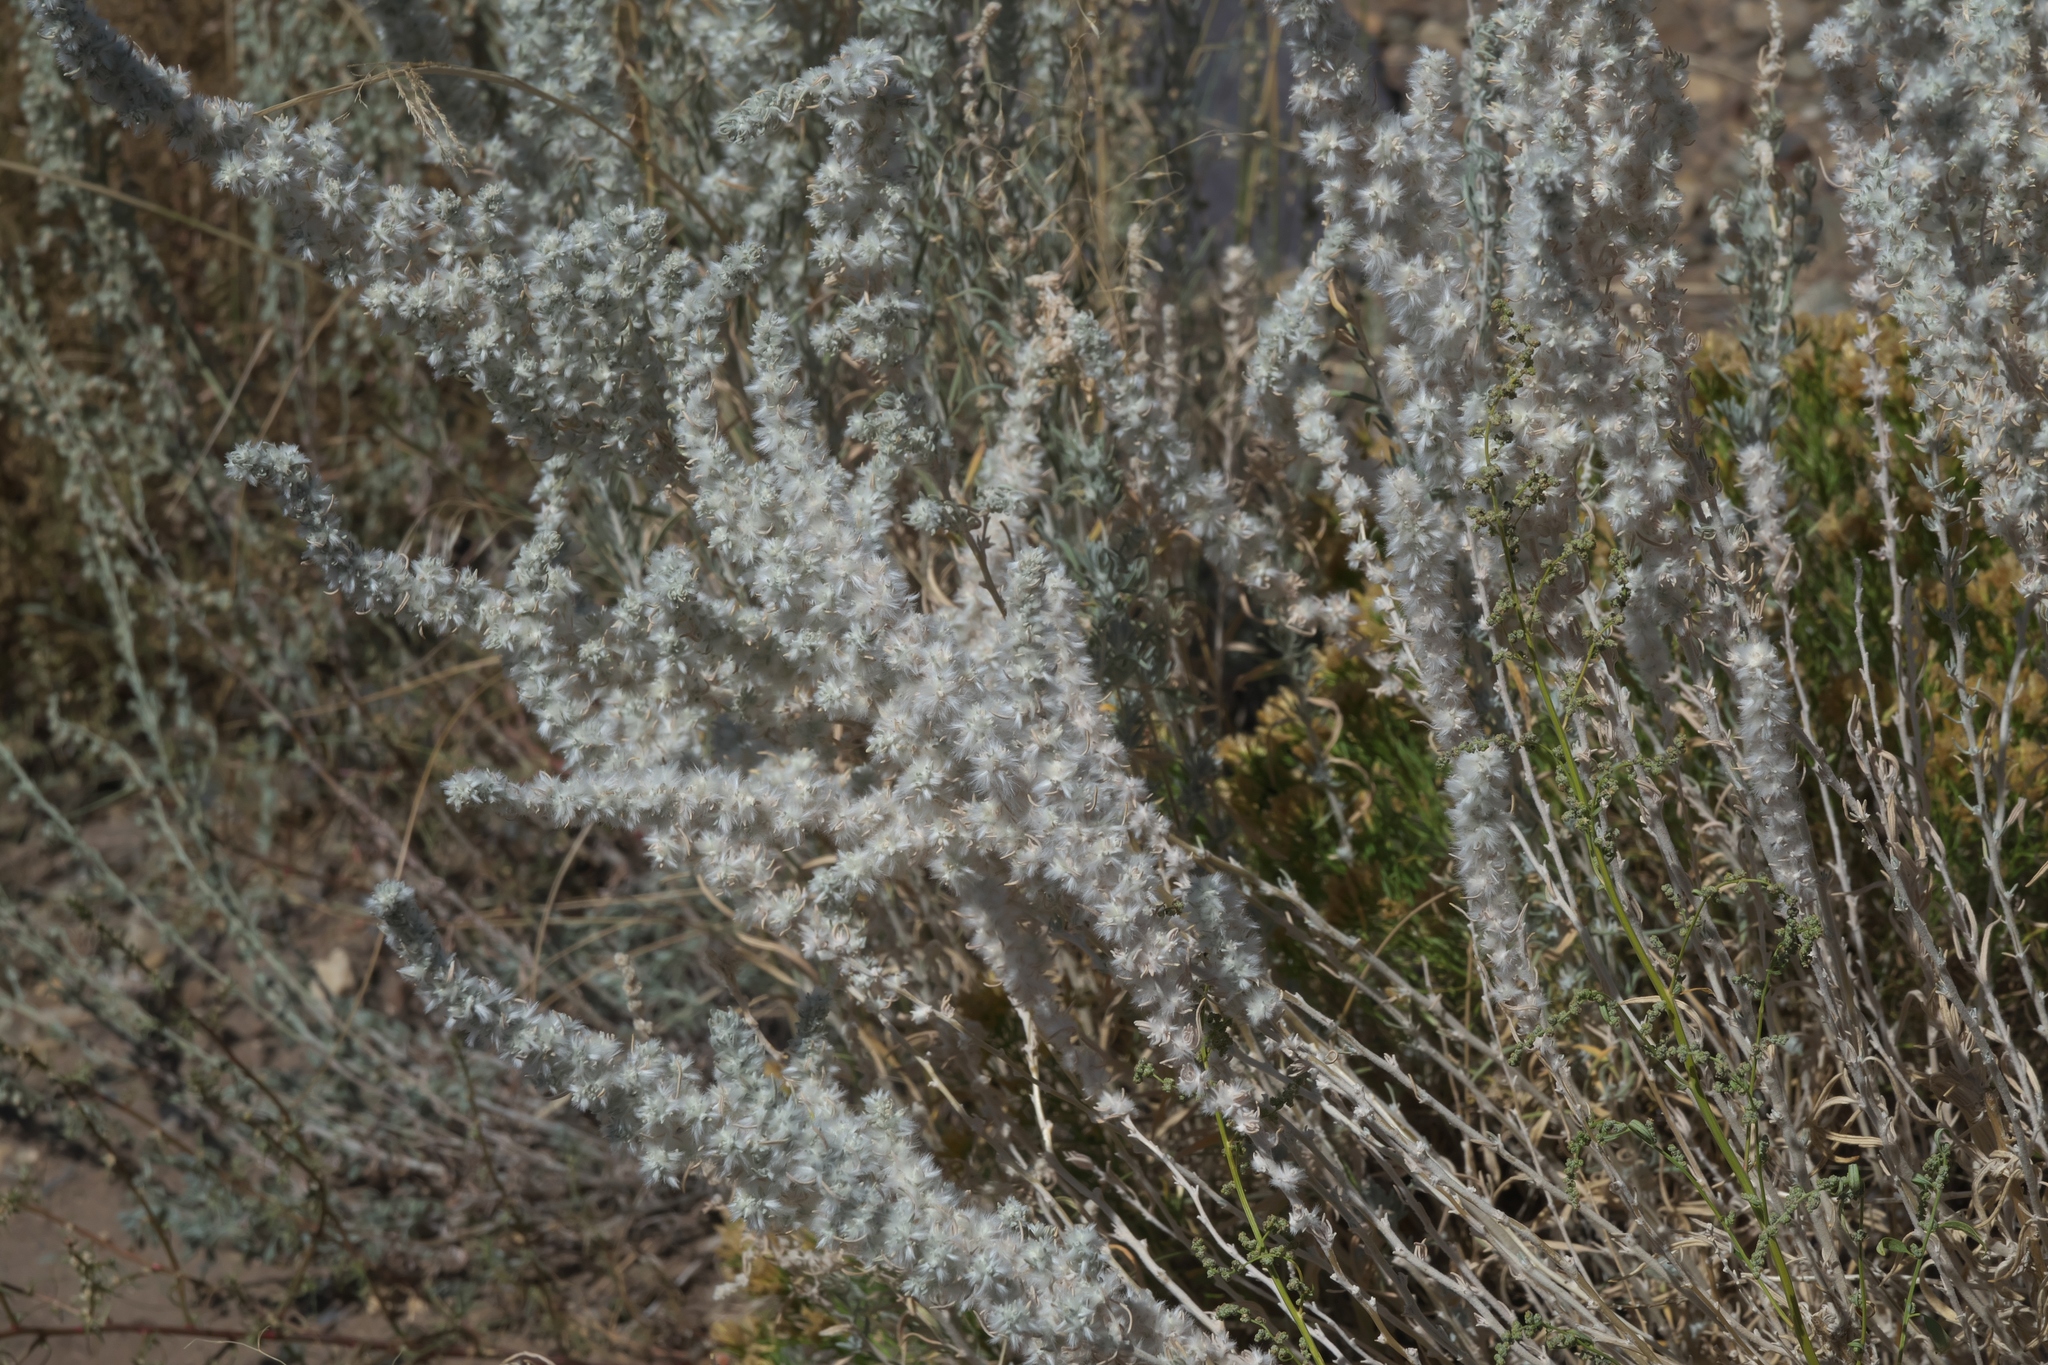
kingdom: Plantae
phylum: Tracheophyta
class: Magnoliopsida
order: Caryophyllales
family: Amaranthaceae
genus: Krascheninnikovia
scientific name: Krascheninnikovia lanata
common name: Winterfat
